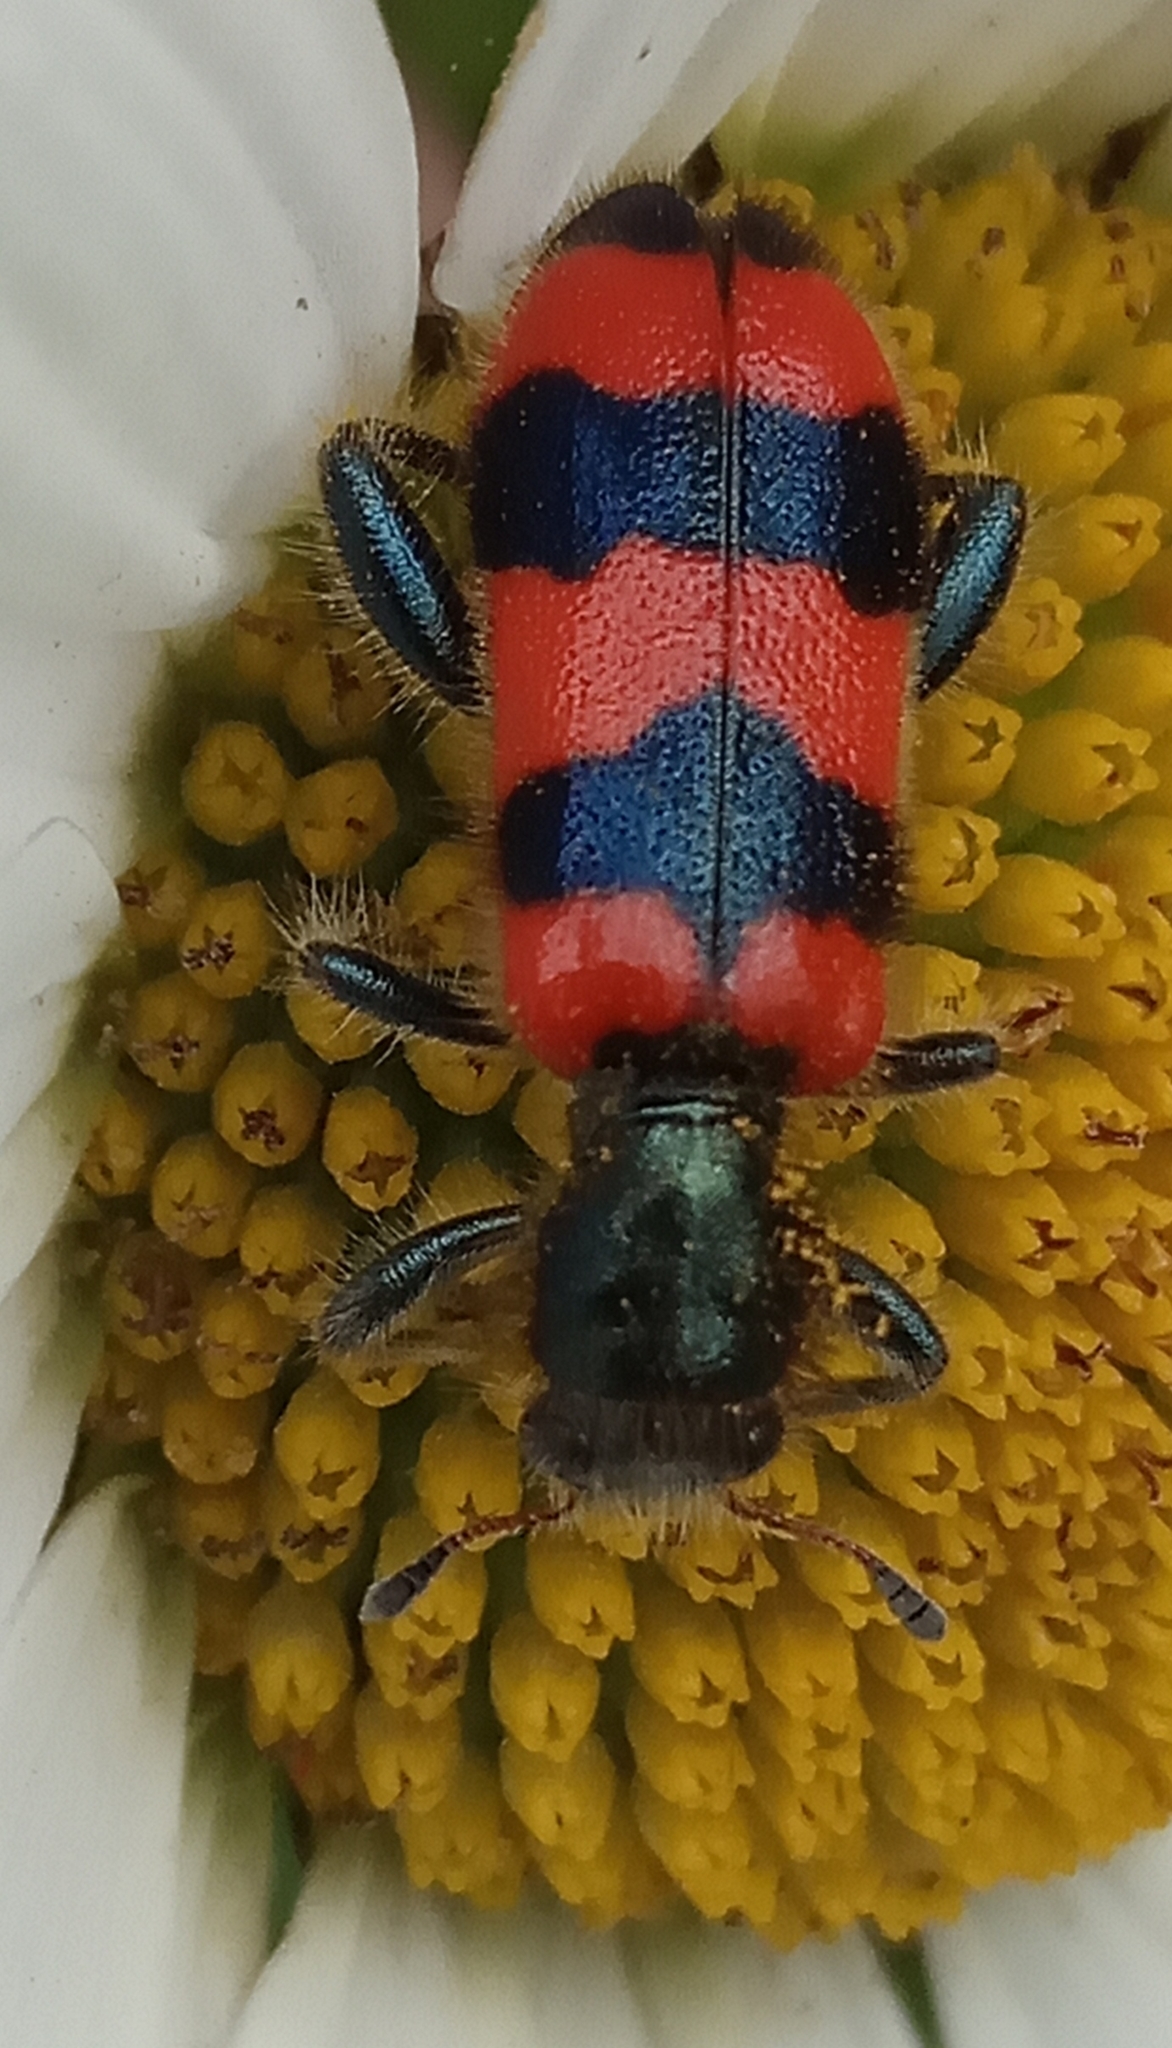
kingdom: Animalia
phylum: Arthropoda
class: Insecta
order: Coleoptera
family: Cleridae
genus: Trichodes
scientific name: Trichodes apiarius
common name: Bee-eating beetle
